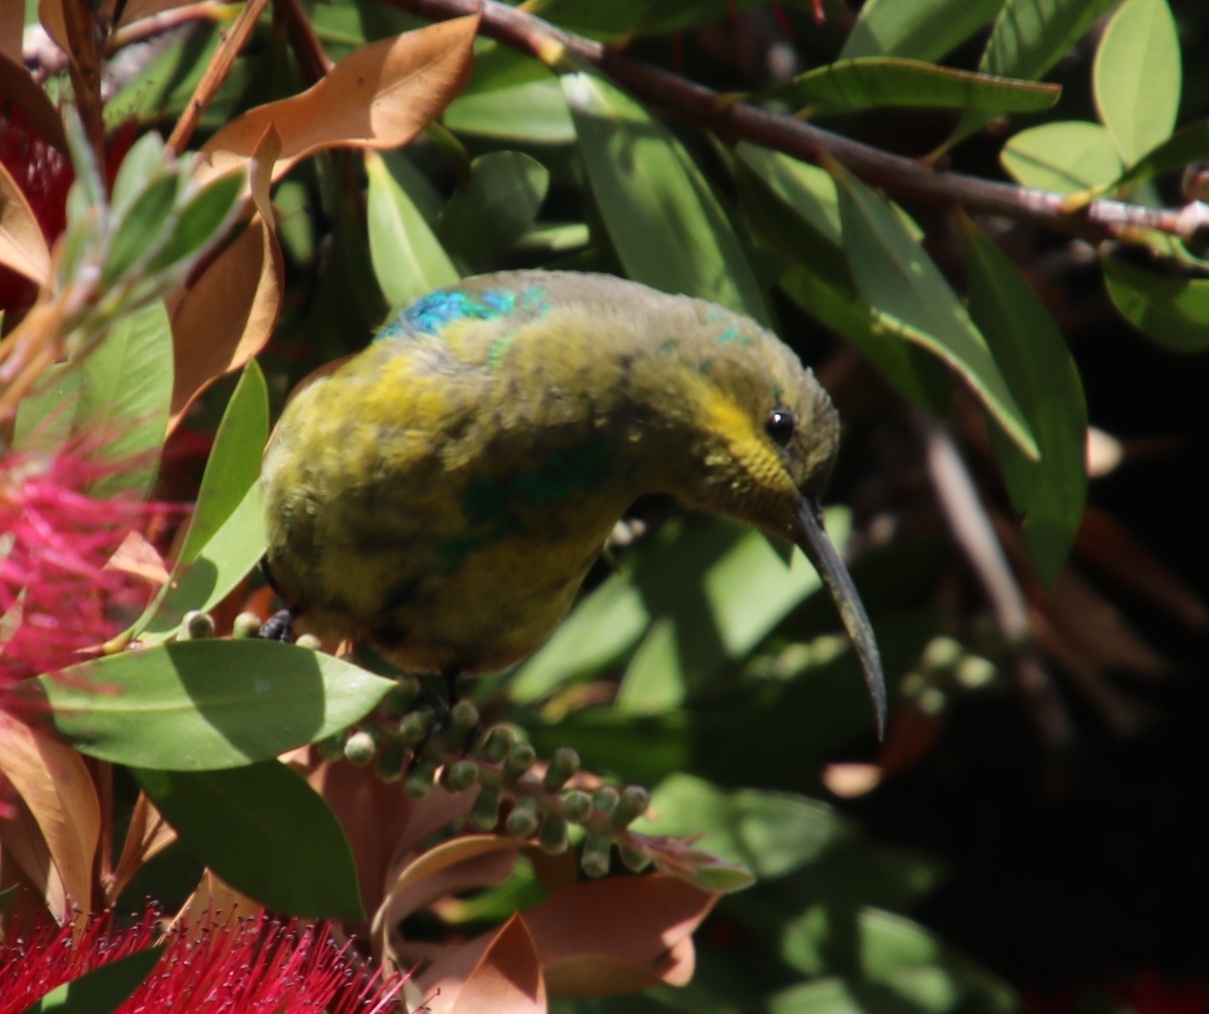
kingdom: Animalia
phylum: Chordata
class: Aves
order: Passeriformes
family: Nectariniidae
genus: Nectarinia
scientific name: Nectarinia famosa
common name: Malachite sunbird
